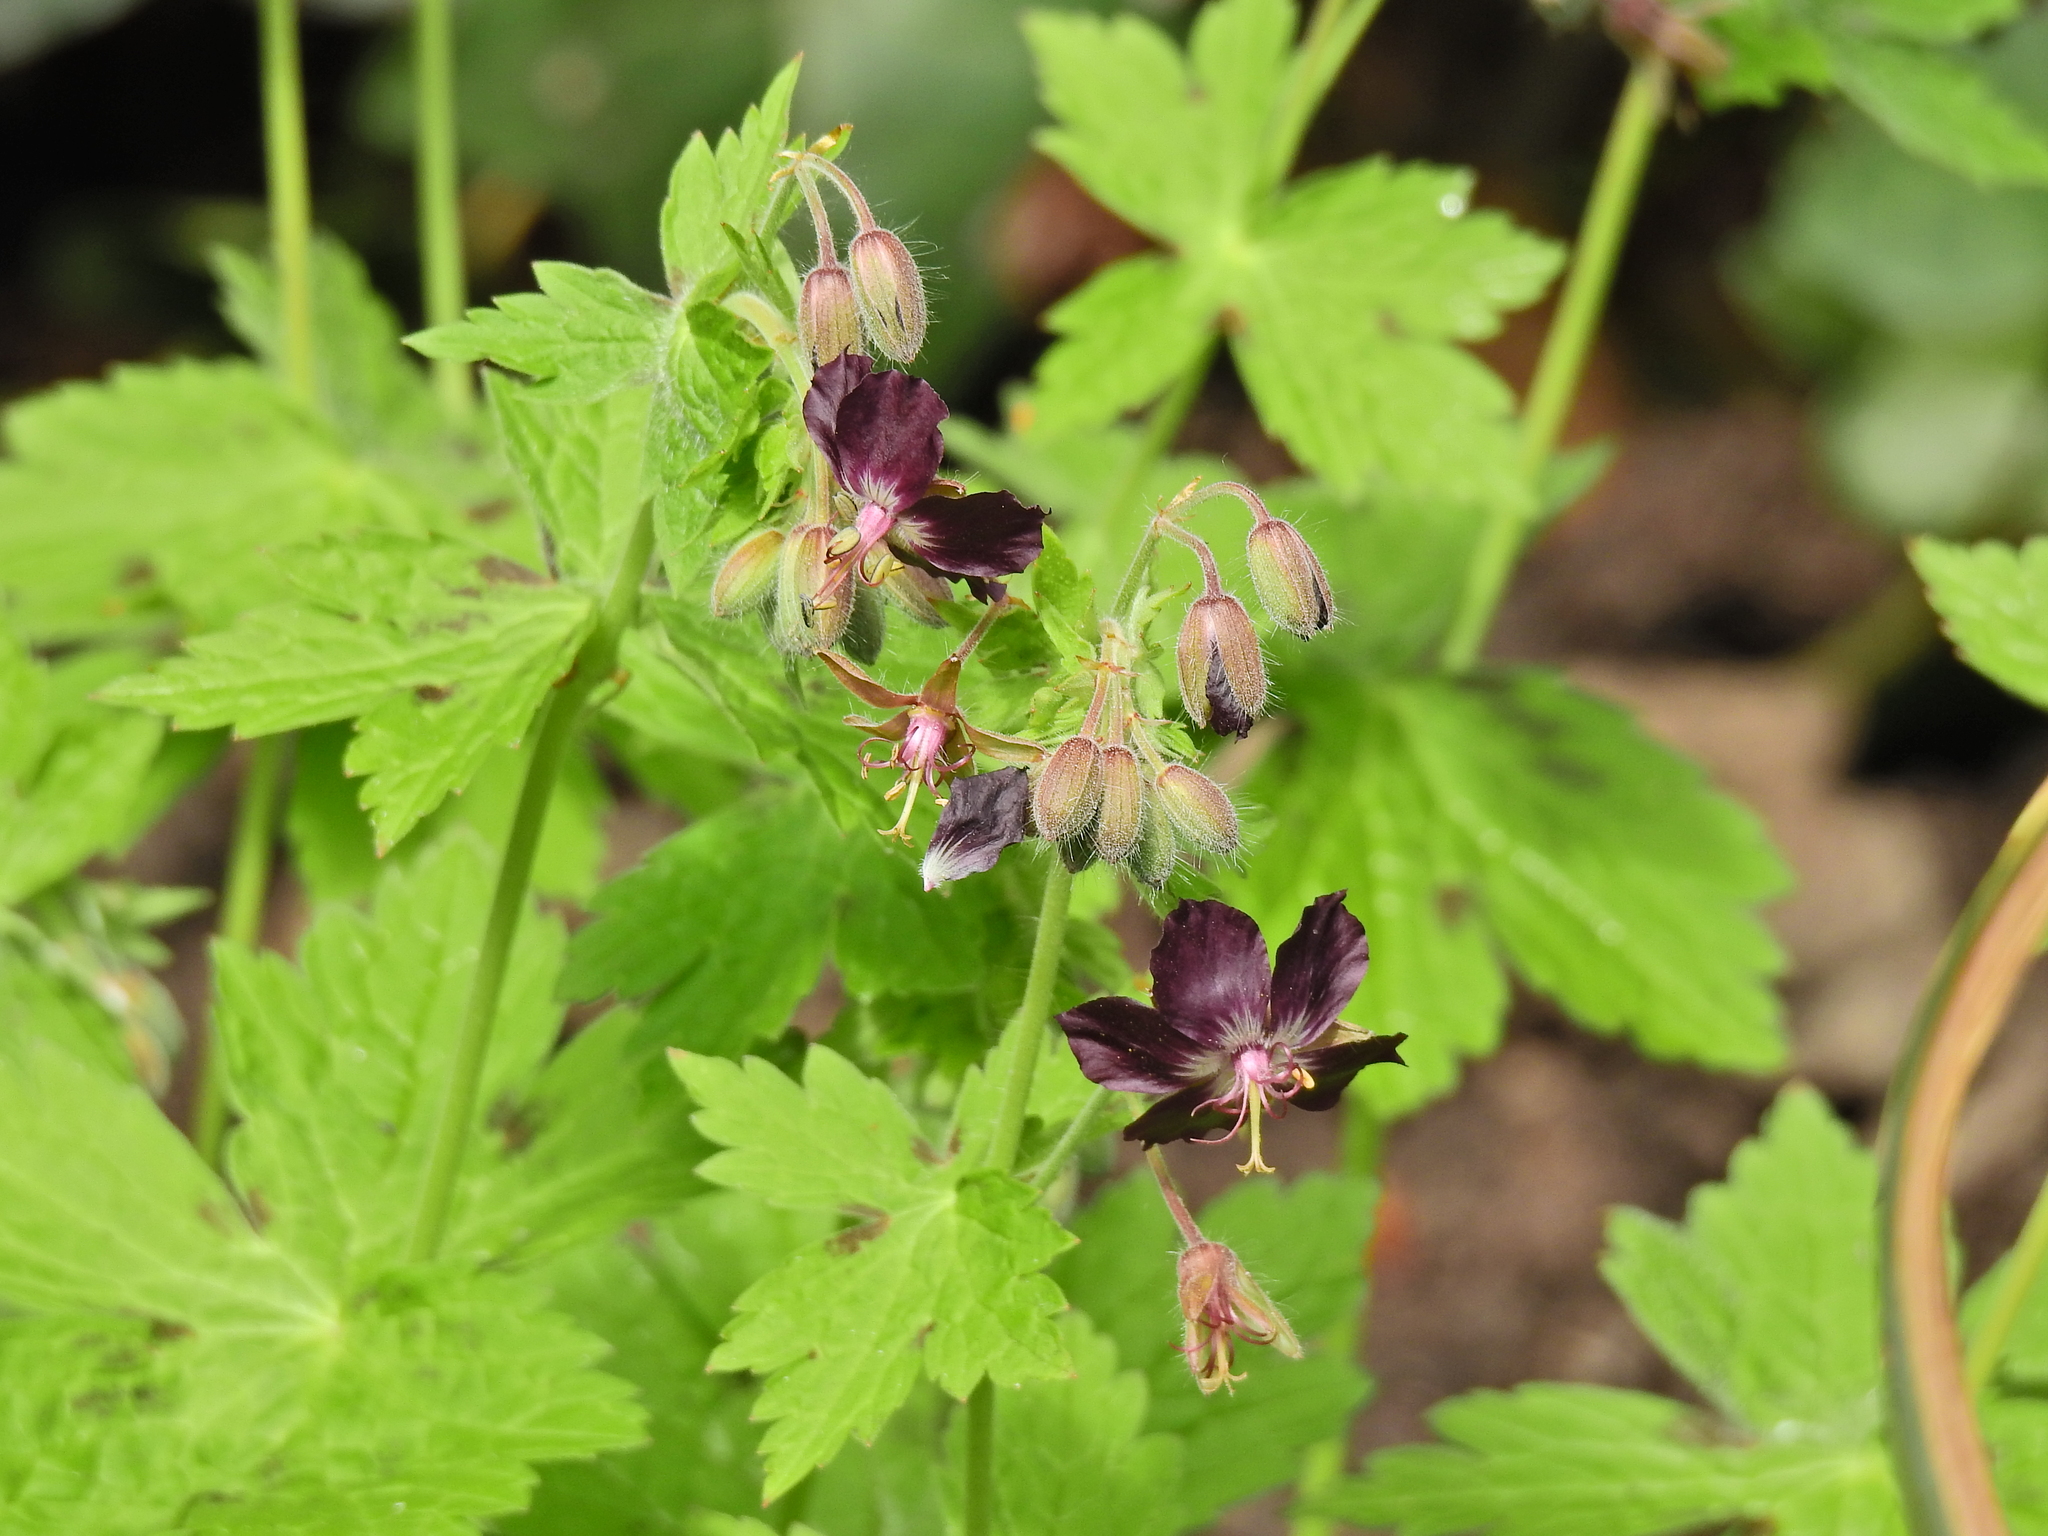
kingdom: Plantae
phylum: Tracheophyta
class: Magnoliopsida
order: Geraniales
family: Geraniaceae
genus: Geranium
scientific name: Geranium phaeum
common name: Dusky crane's-bill
